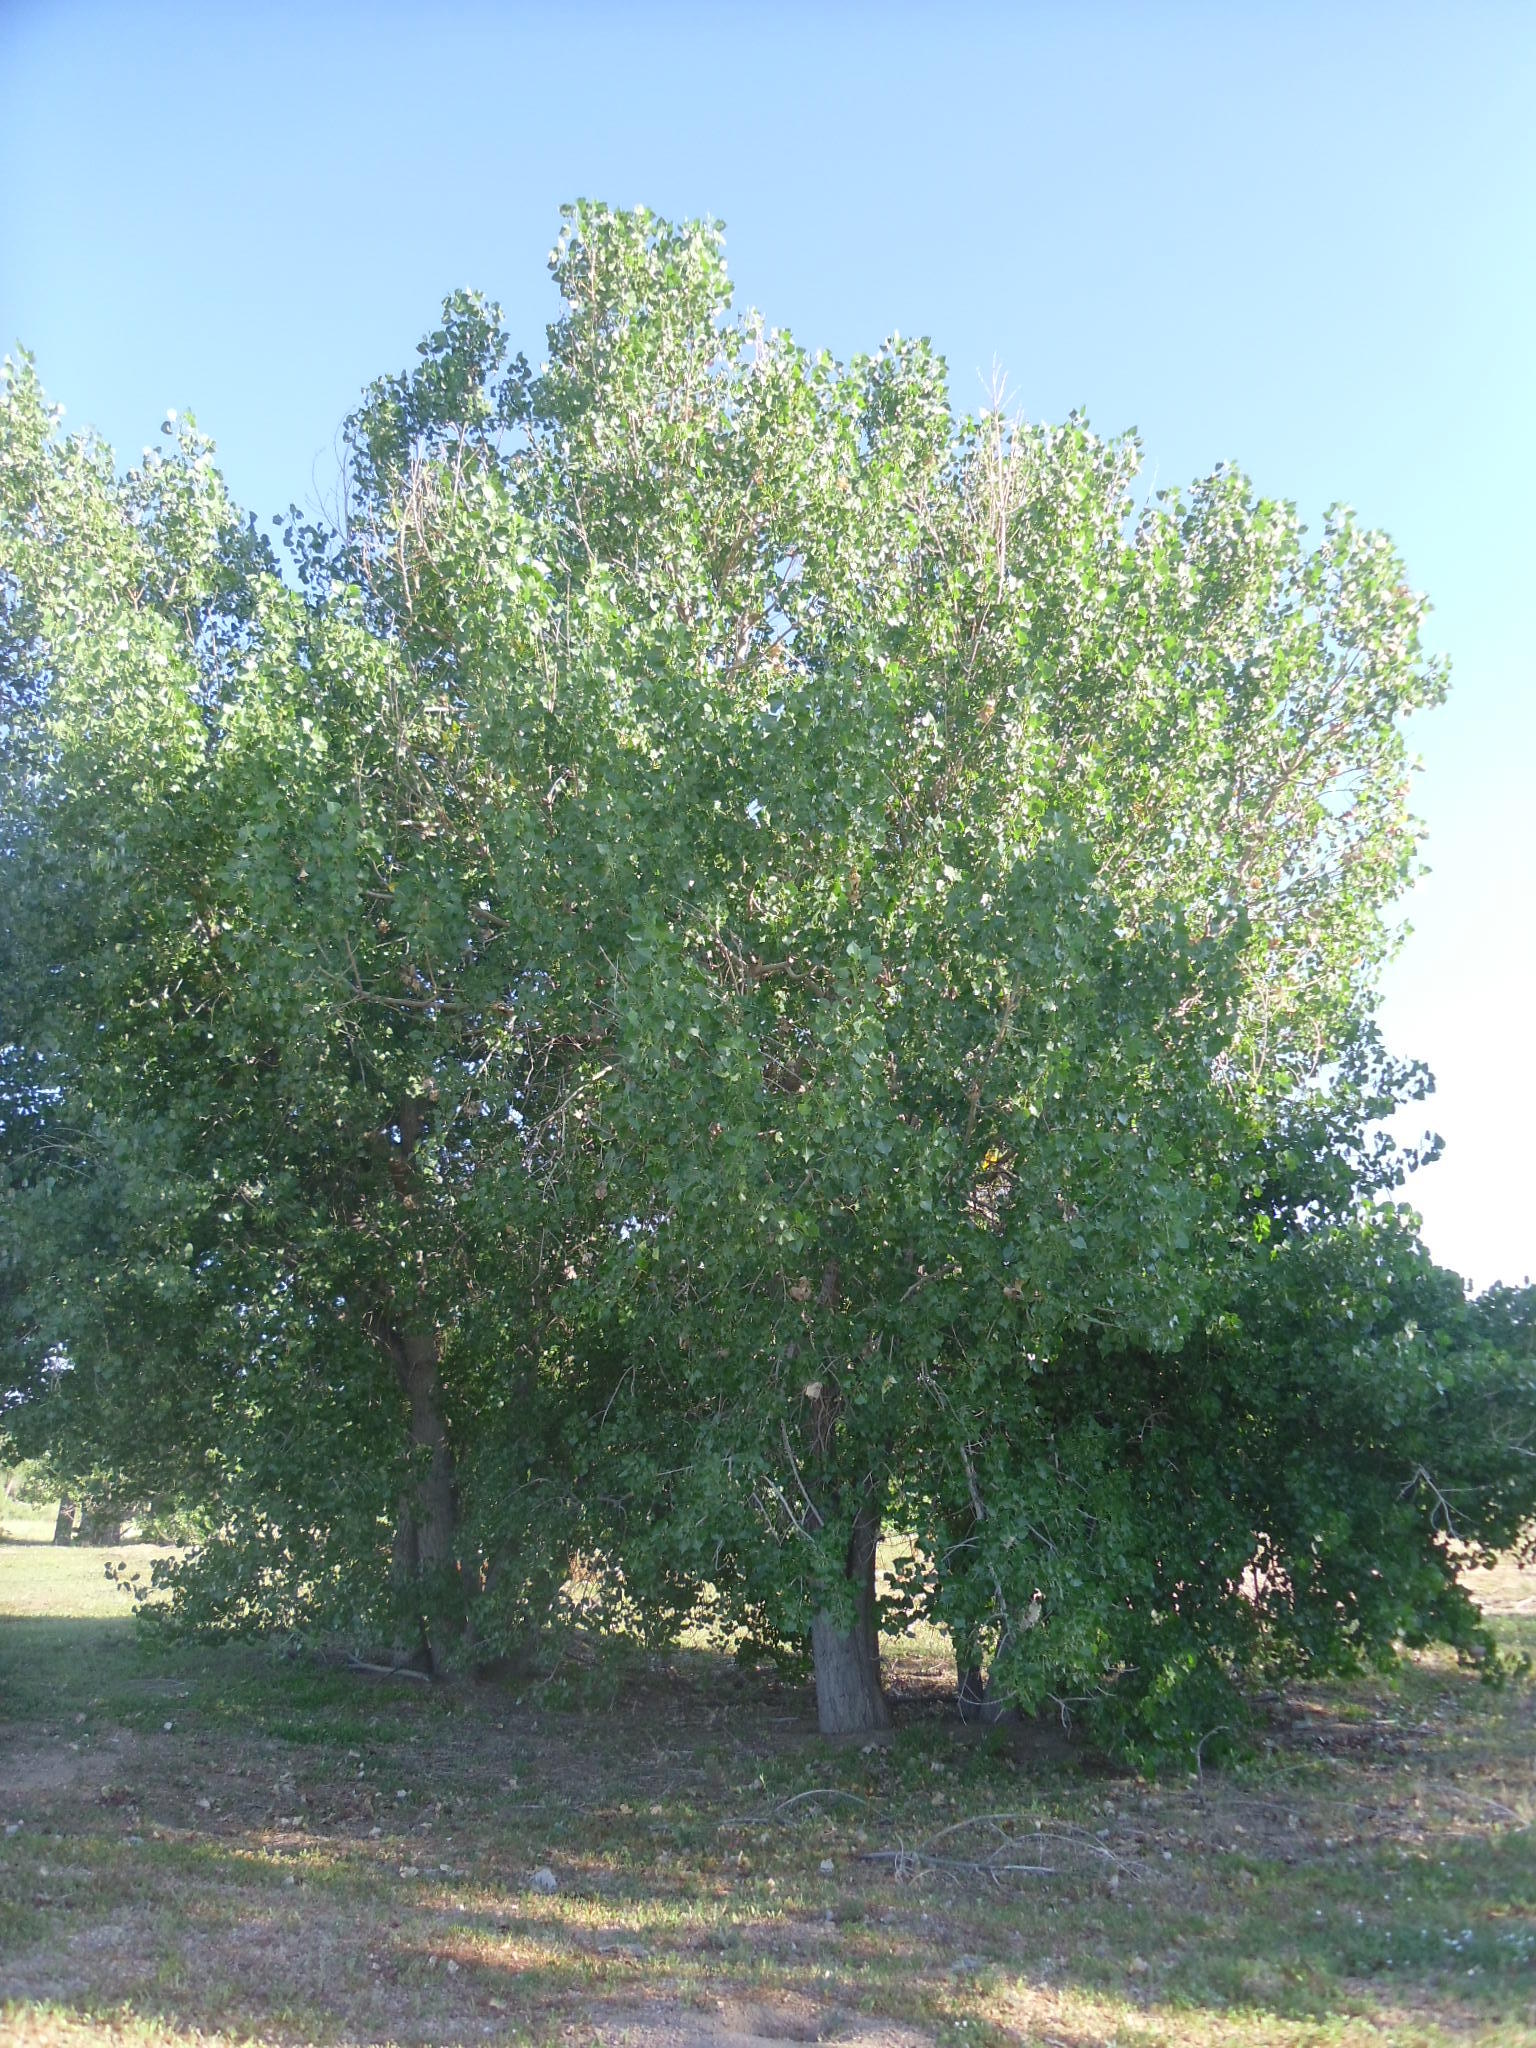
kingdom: Plantae
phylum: Tracheophyta
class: Magnoliopsida
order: Malpighiales
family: Salicaceae
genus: Populus
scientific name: Populus deltoides
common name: Eastern cottonwood
